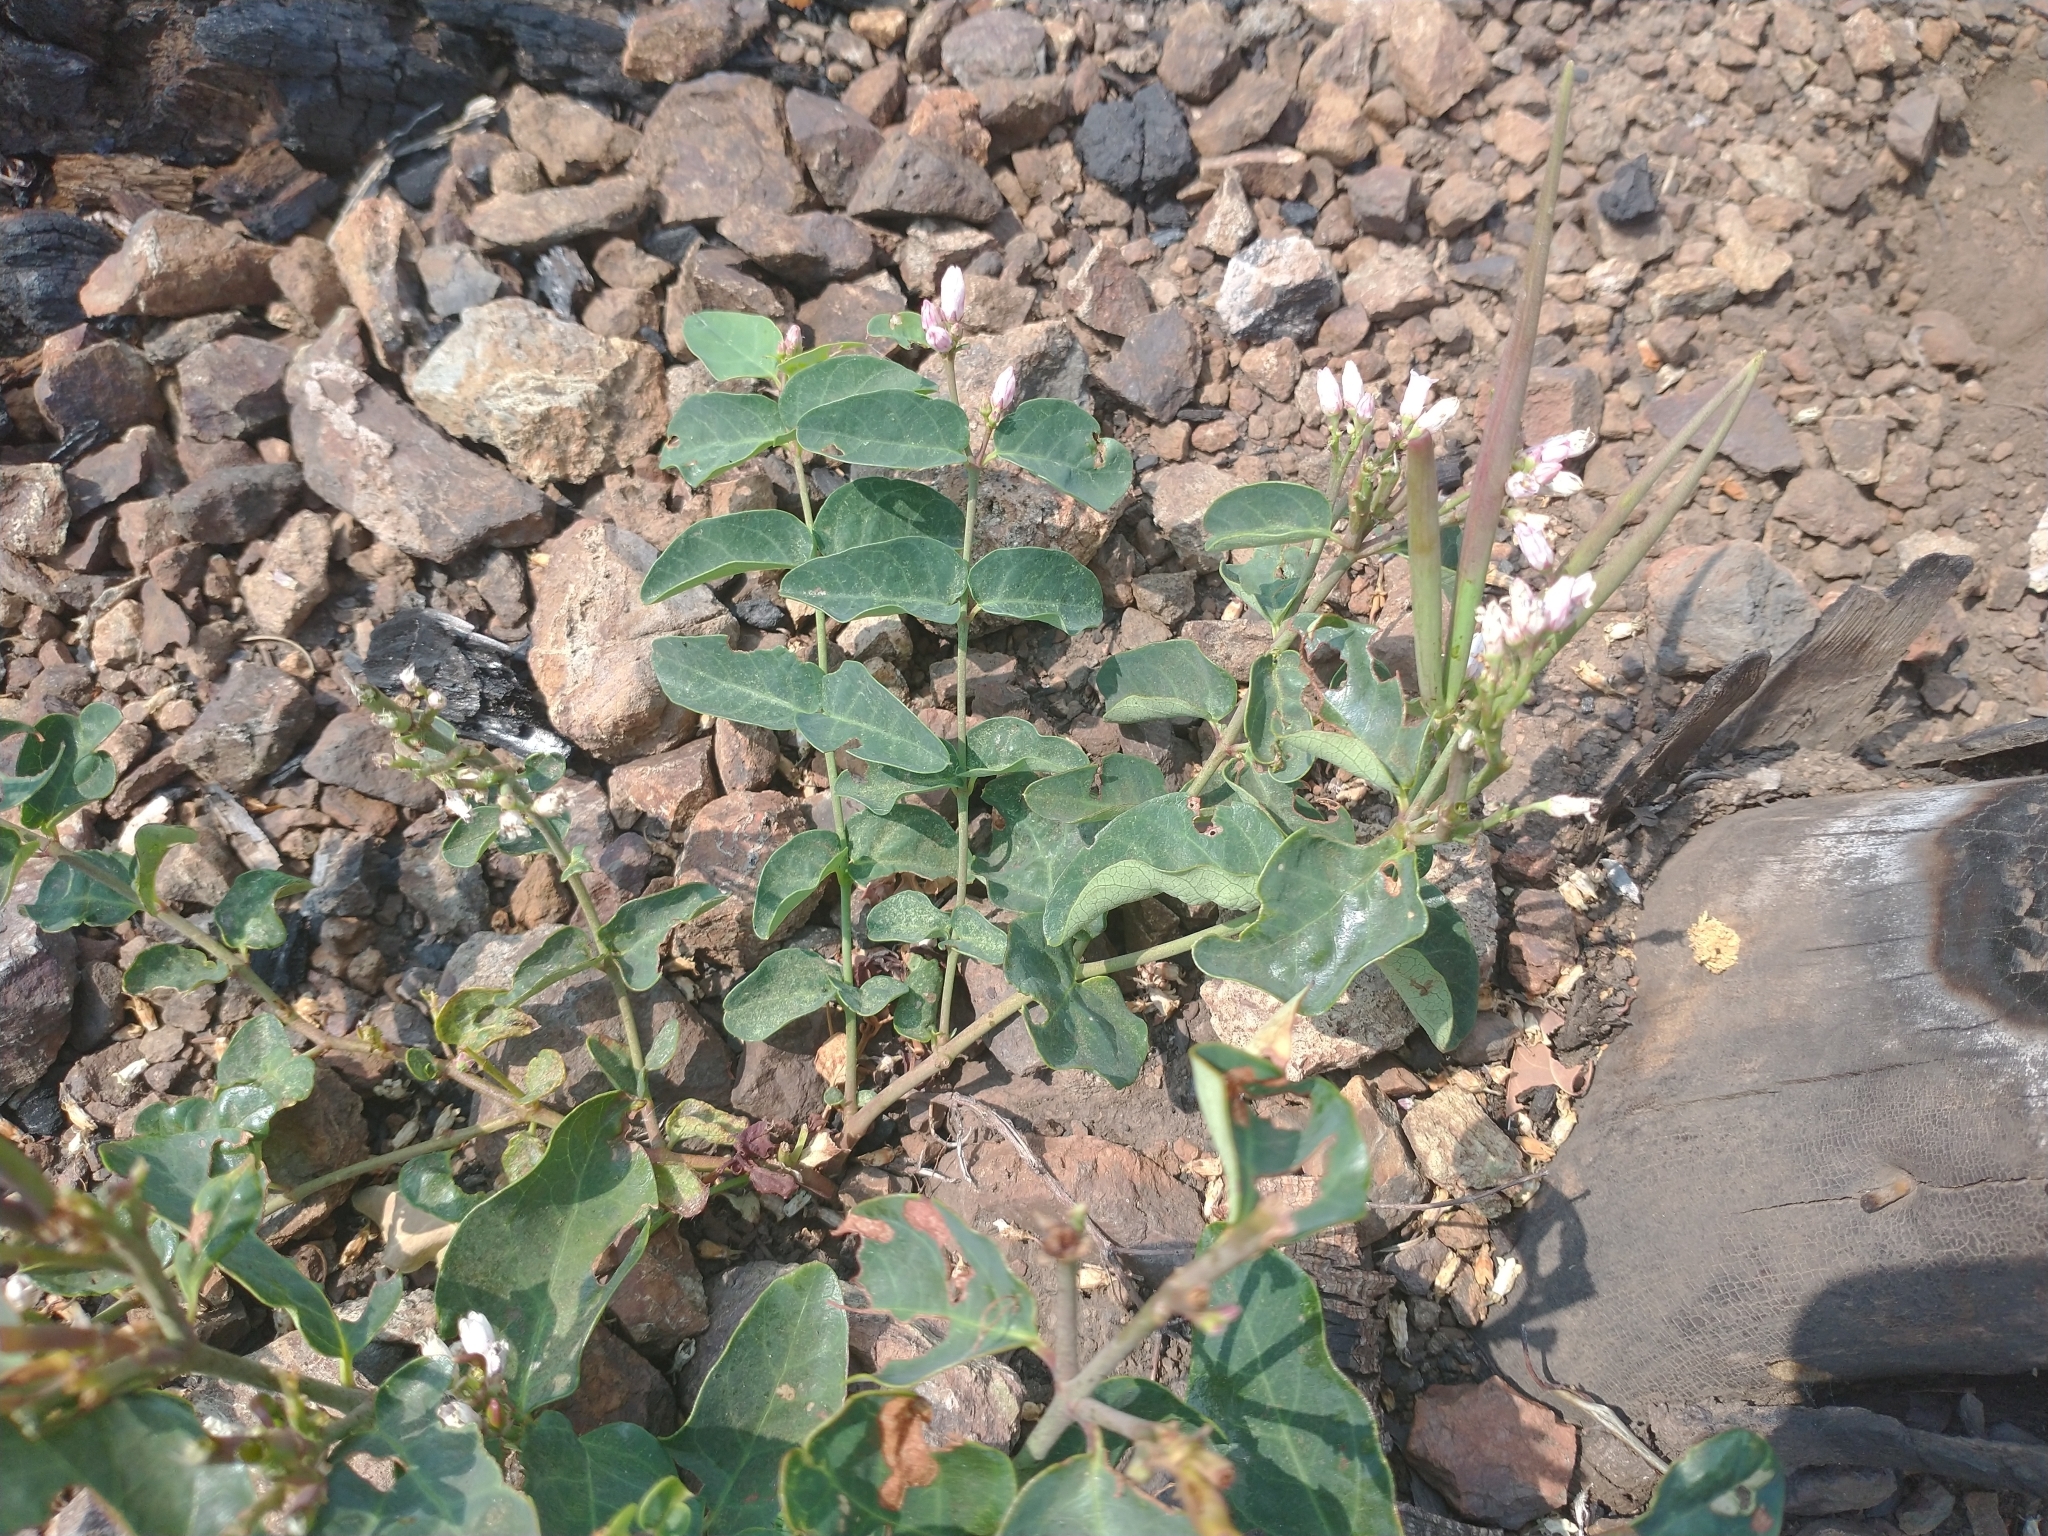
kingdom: Plantae
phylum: Tracheophyta
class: Magnoliopsida
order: Gentianales
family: Apocynaceae
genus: Apocynum
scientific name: Apocynum androsaemifolium
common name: Spreading dogbane
